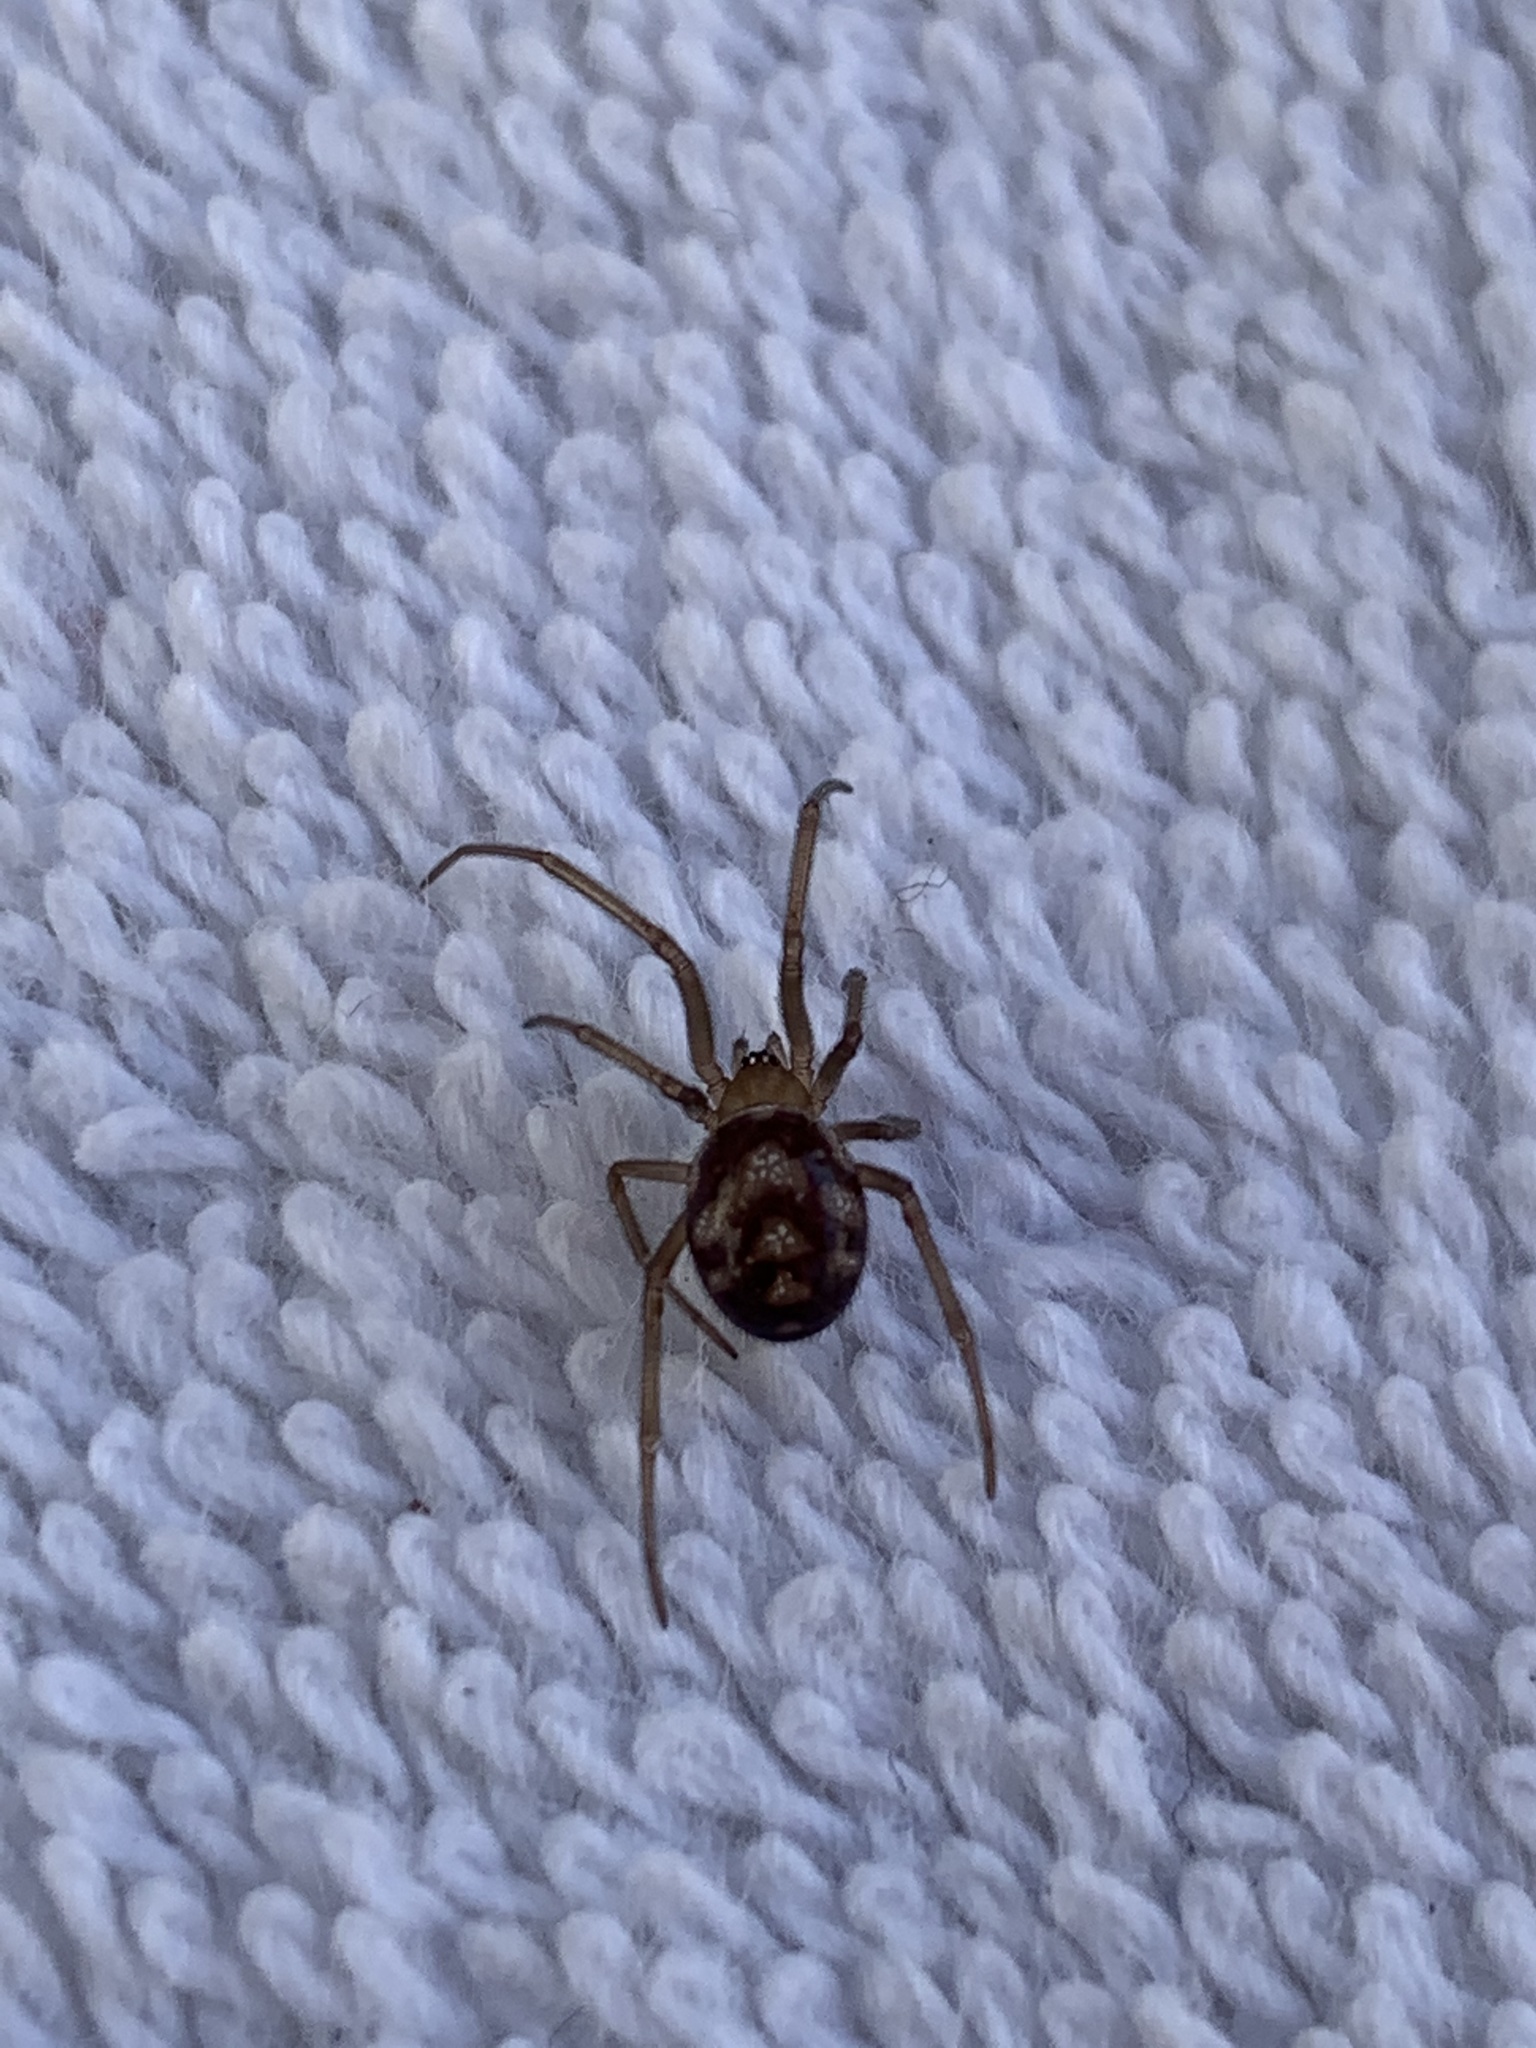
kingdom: Animalia
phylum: Arthropoda
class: Arachnida
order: Araneae
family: Theridiidae
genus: Steatoda
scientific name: Steatoda grossa
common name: False black widow
